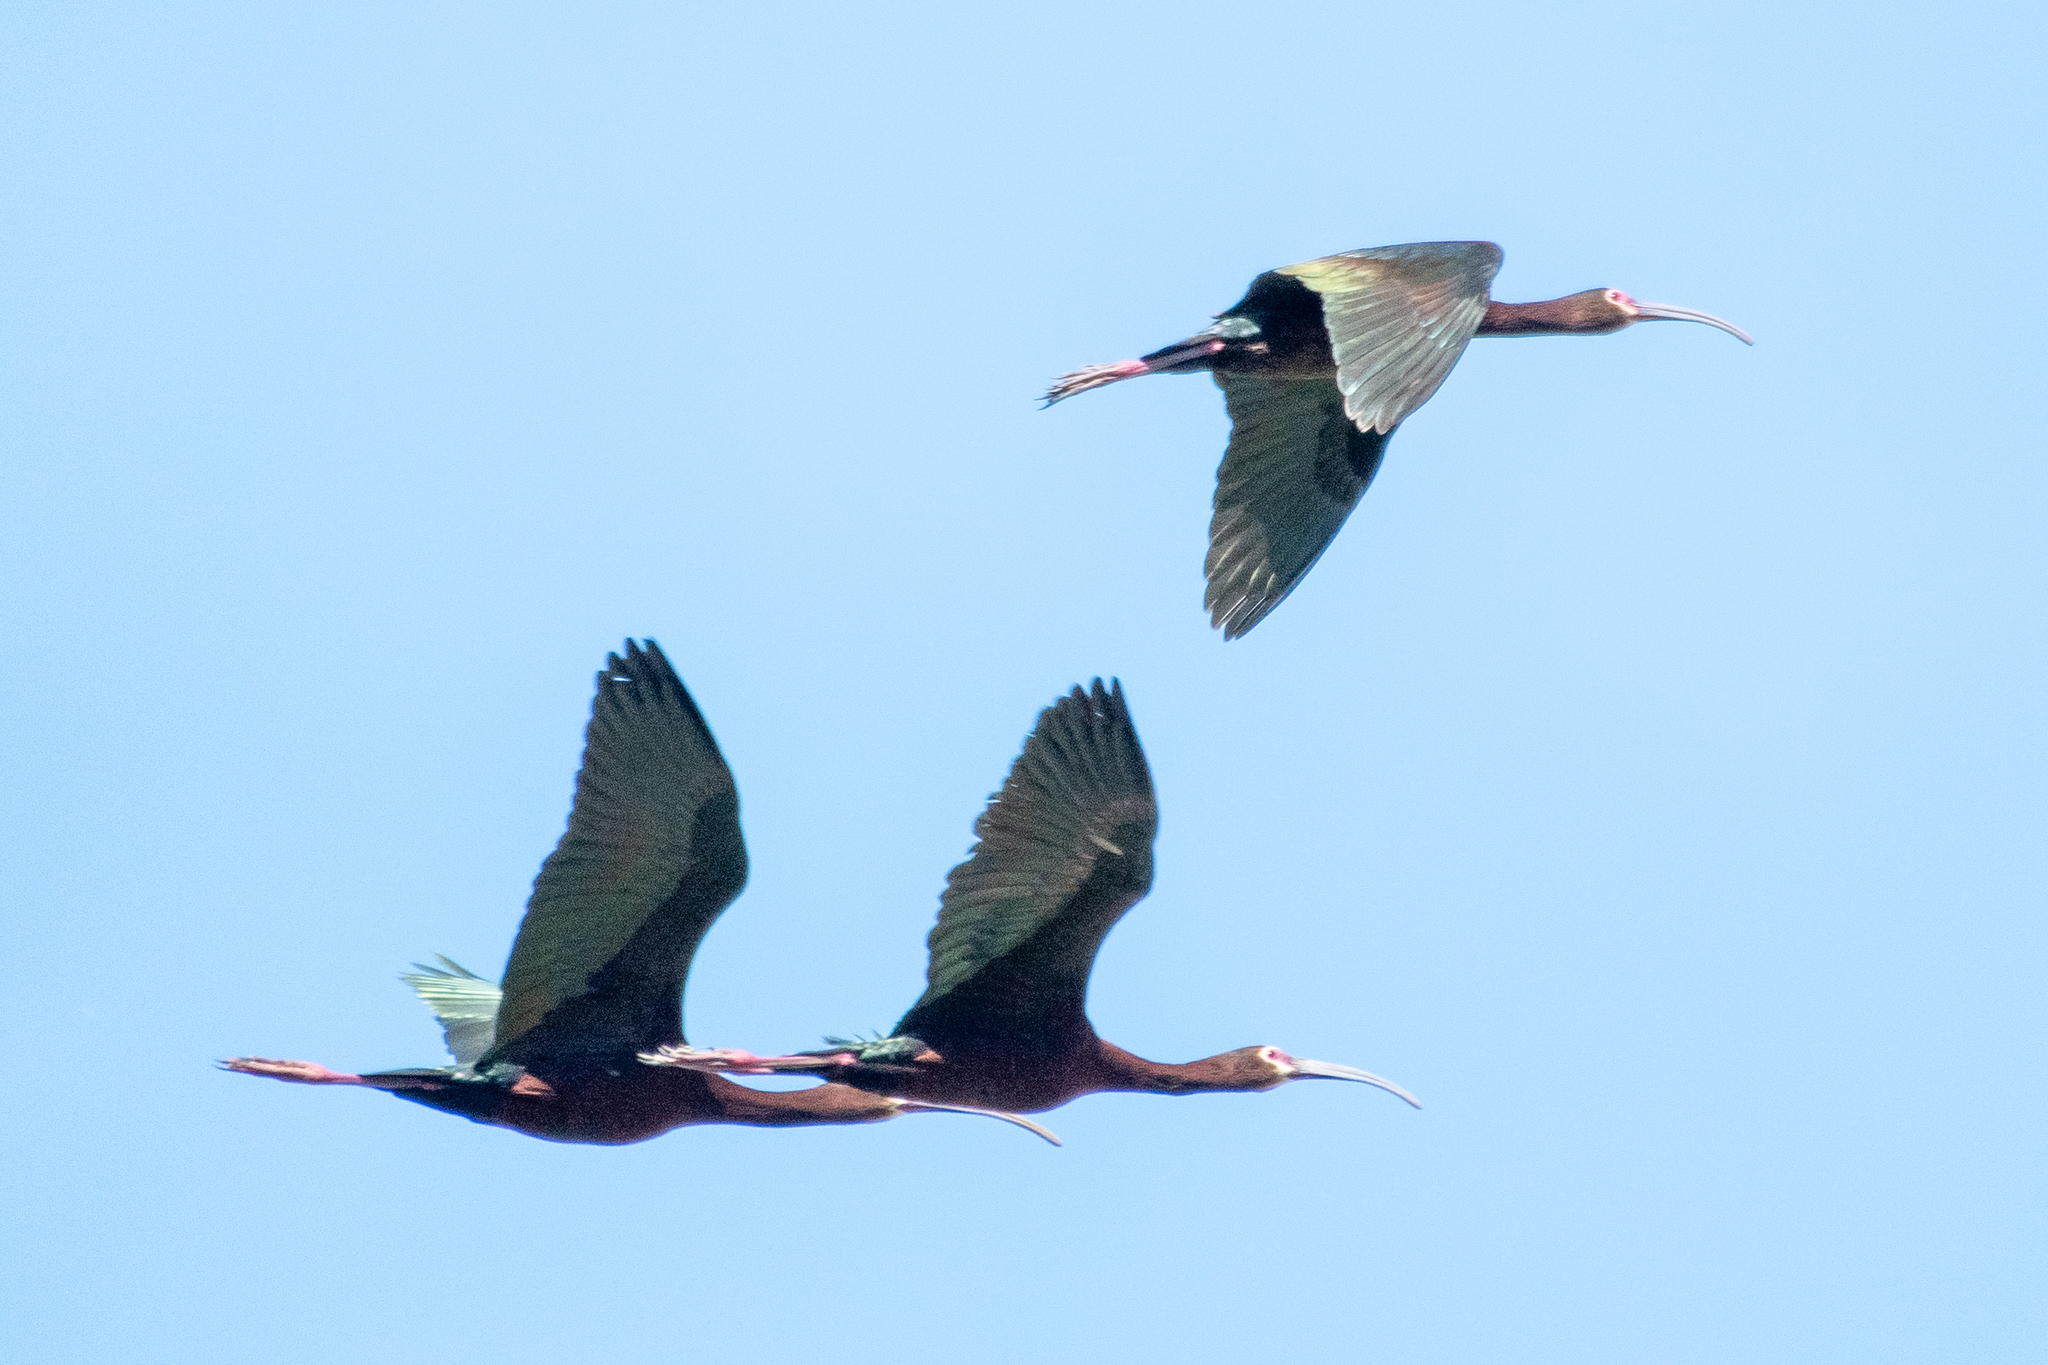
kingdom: Animalia
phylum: Chordata
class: Aves
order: Pelecaniformes
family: Threskiornithidae
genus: Plegadis
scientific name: Plegadis chihi
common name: White-faced ibis
